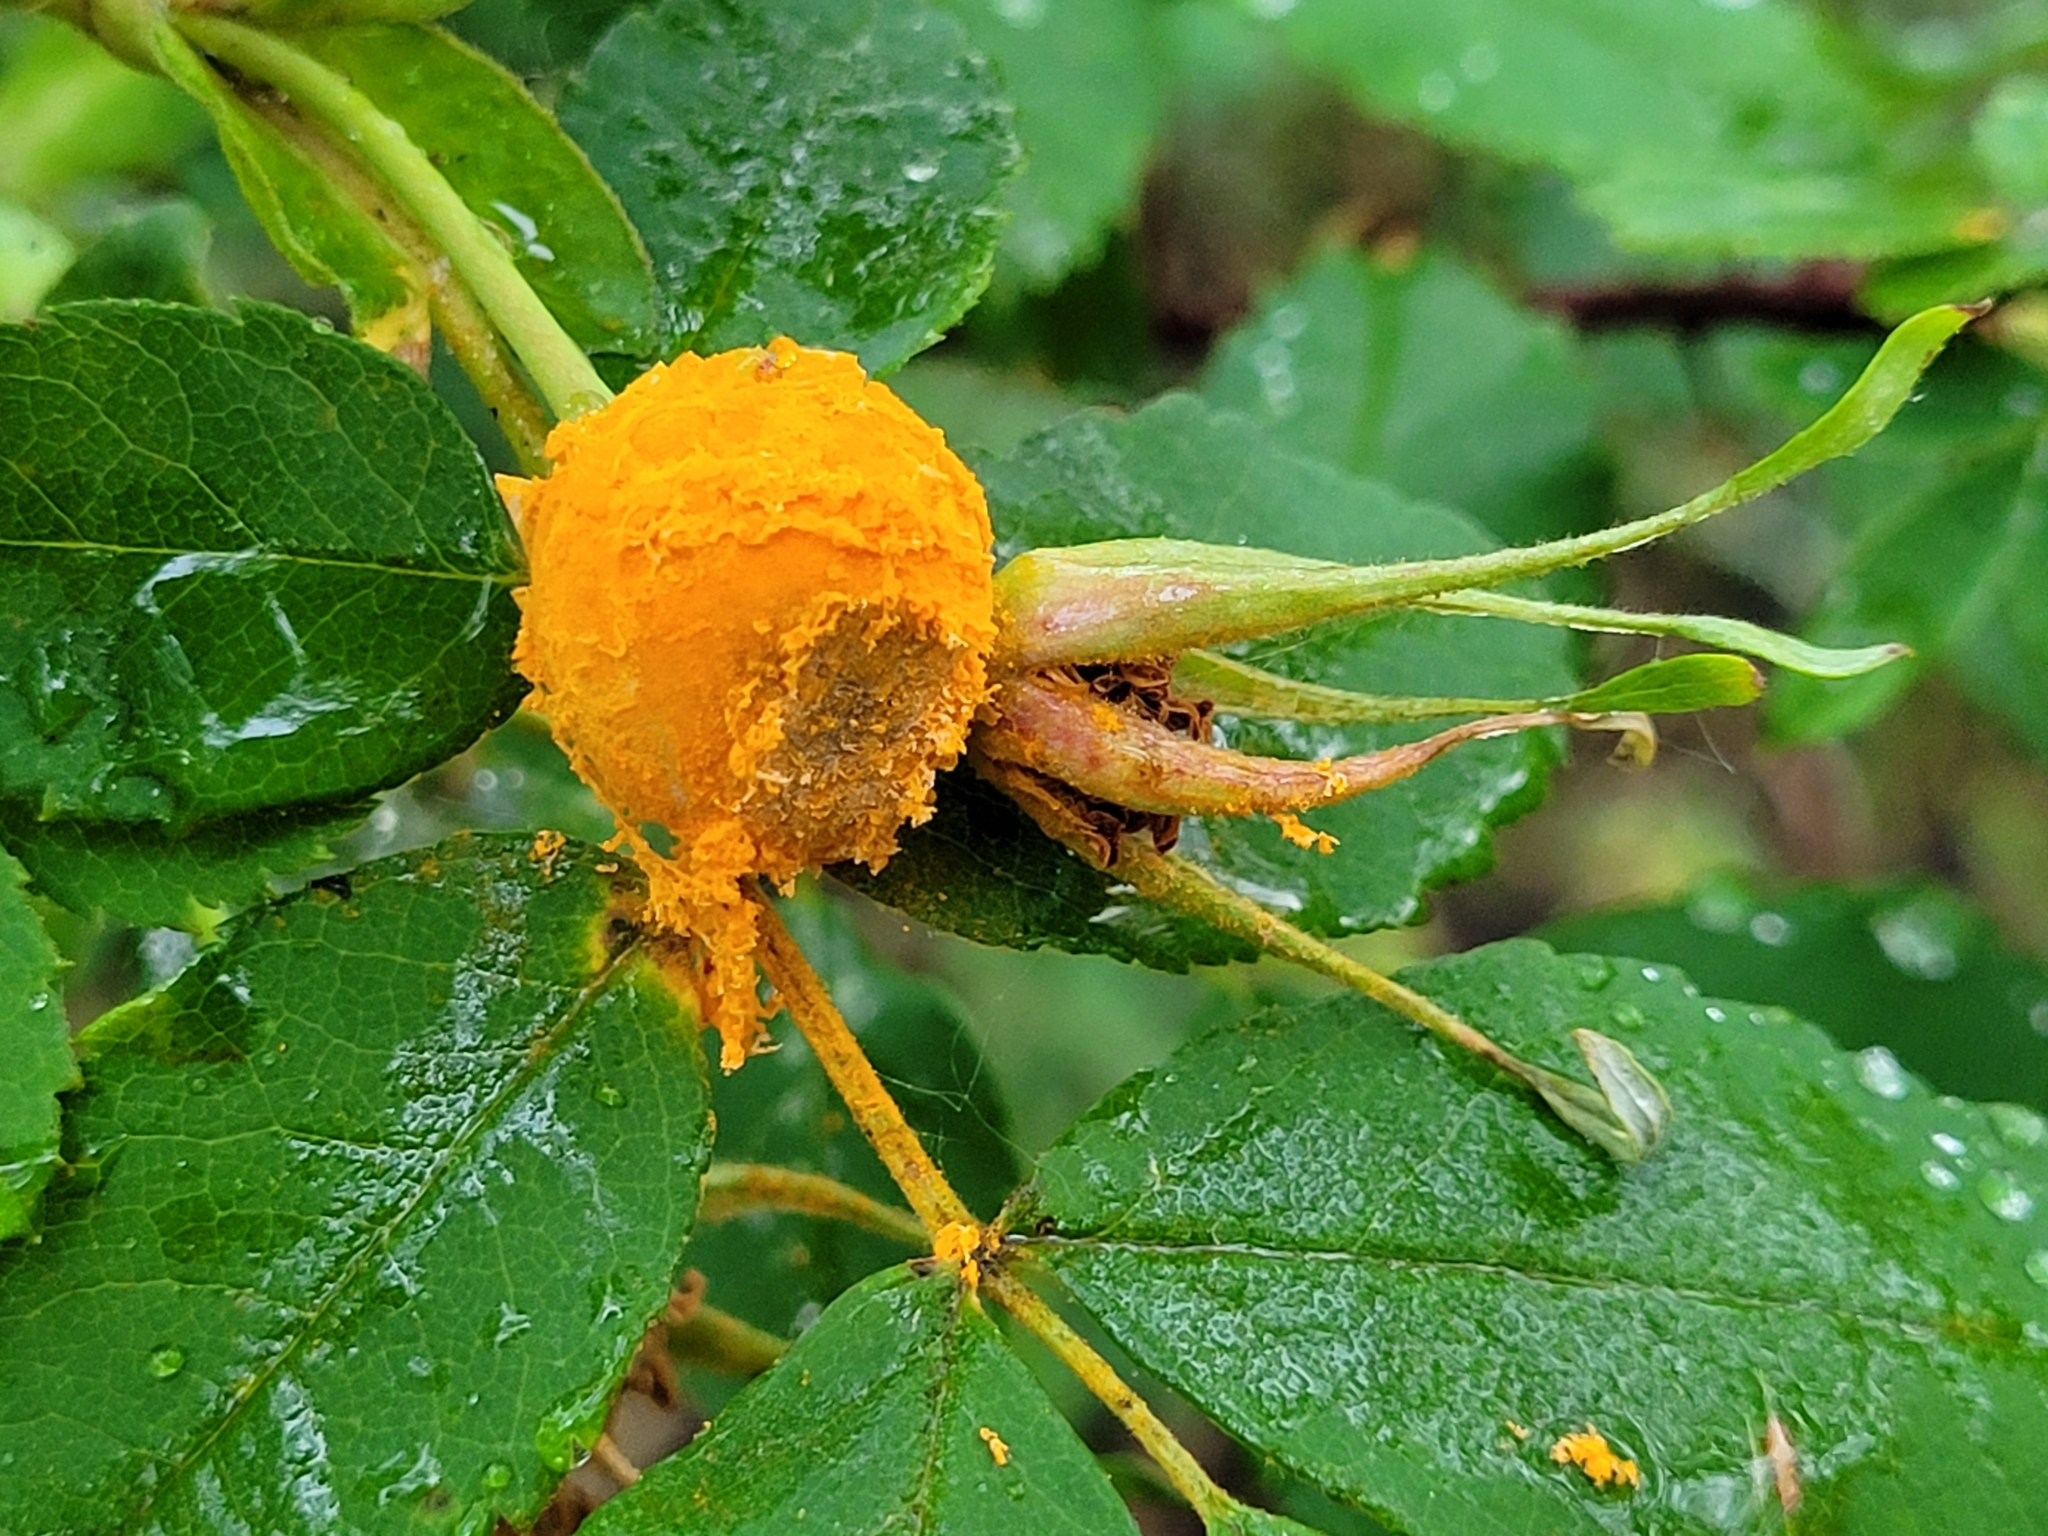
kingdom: Fungi
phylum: Basidiomycota
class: Pucciniomycetes
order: Pucciniales
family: Phragmidiaceae
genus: Phragmidium
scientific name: Phragmidium
